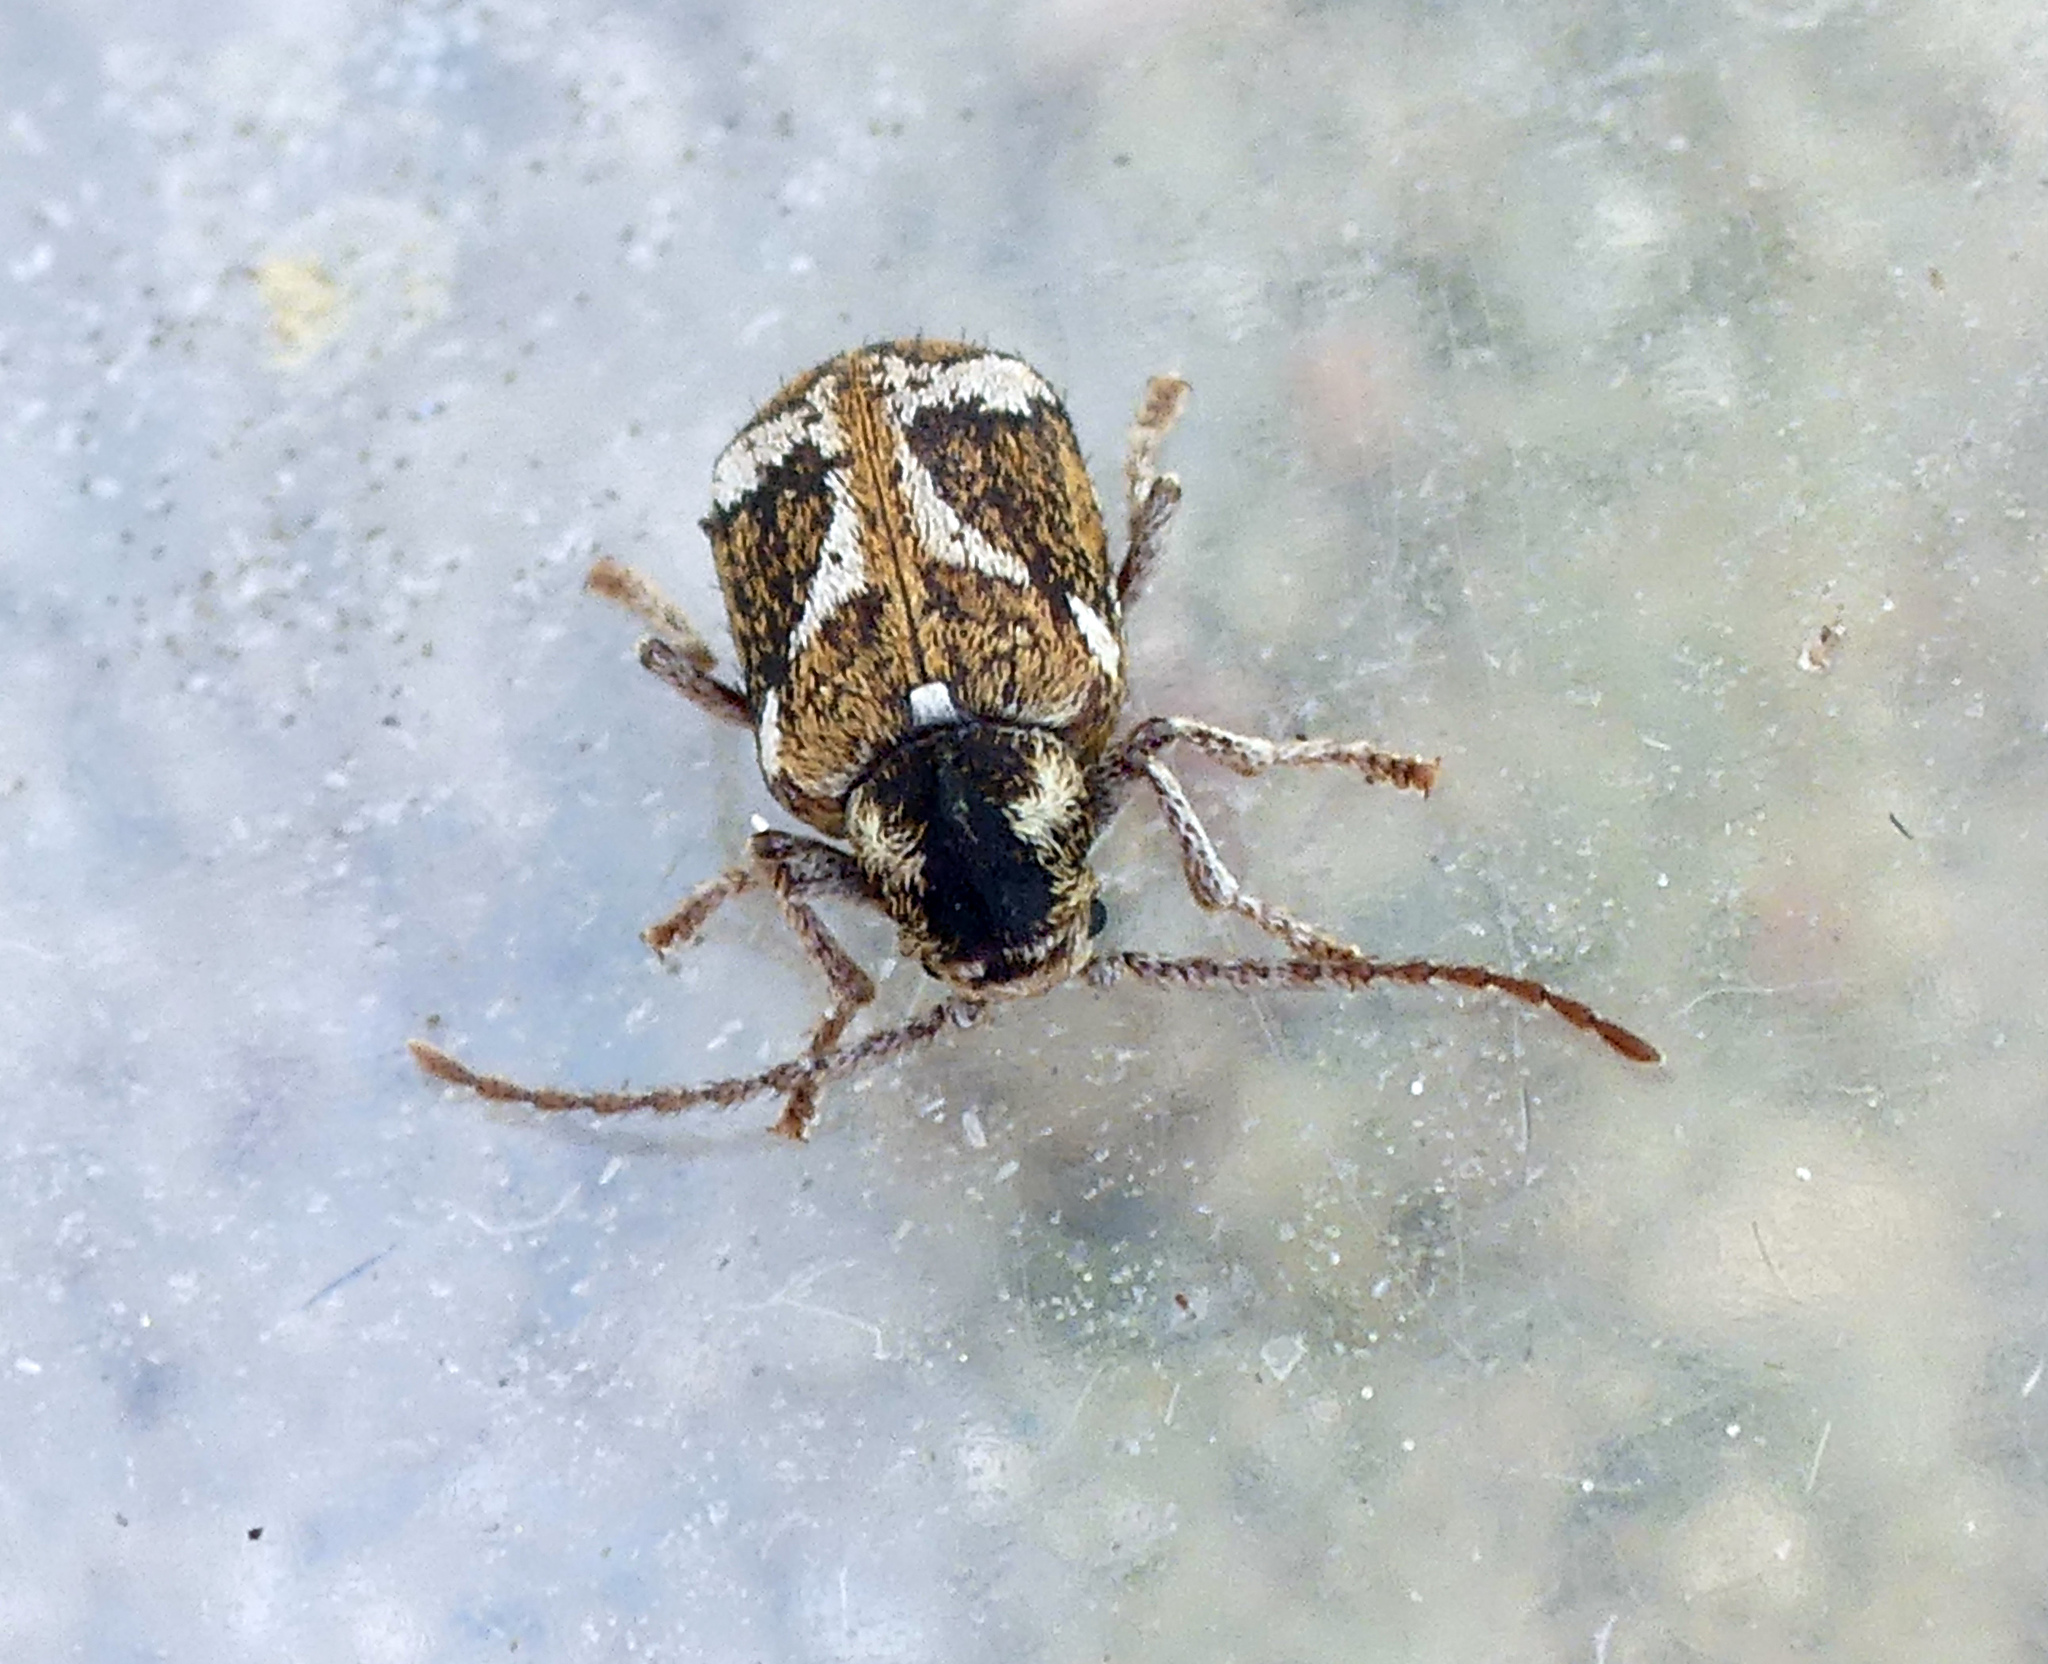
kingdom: Animalia
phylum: Arthropoda
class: Insecta
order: Coleoptera
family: Anobiidae
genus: Ptinomorphus
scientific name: Ptinomorphus imperialis
